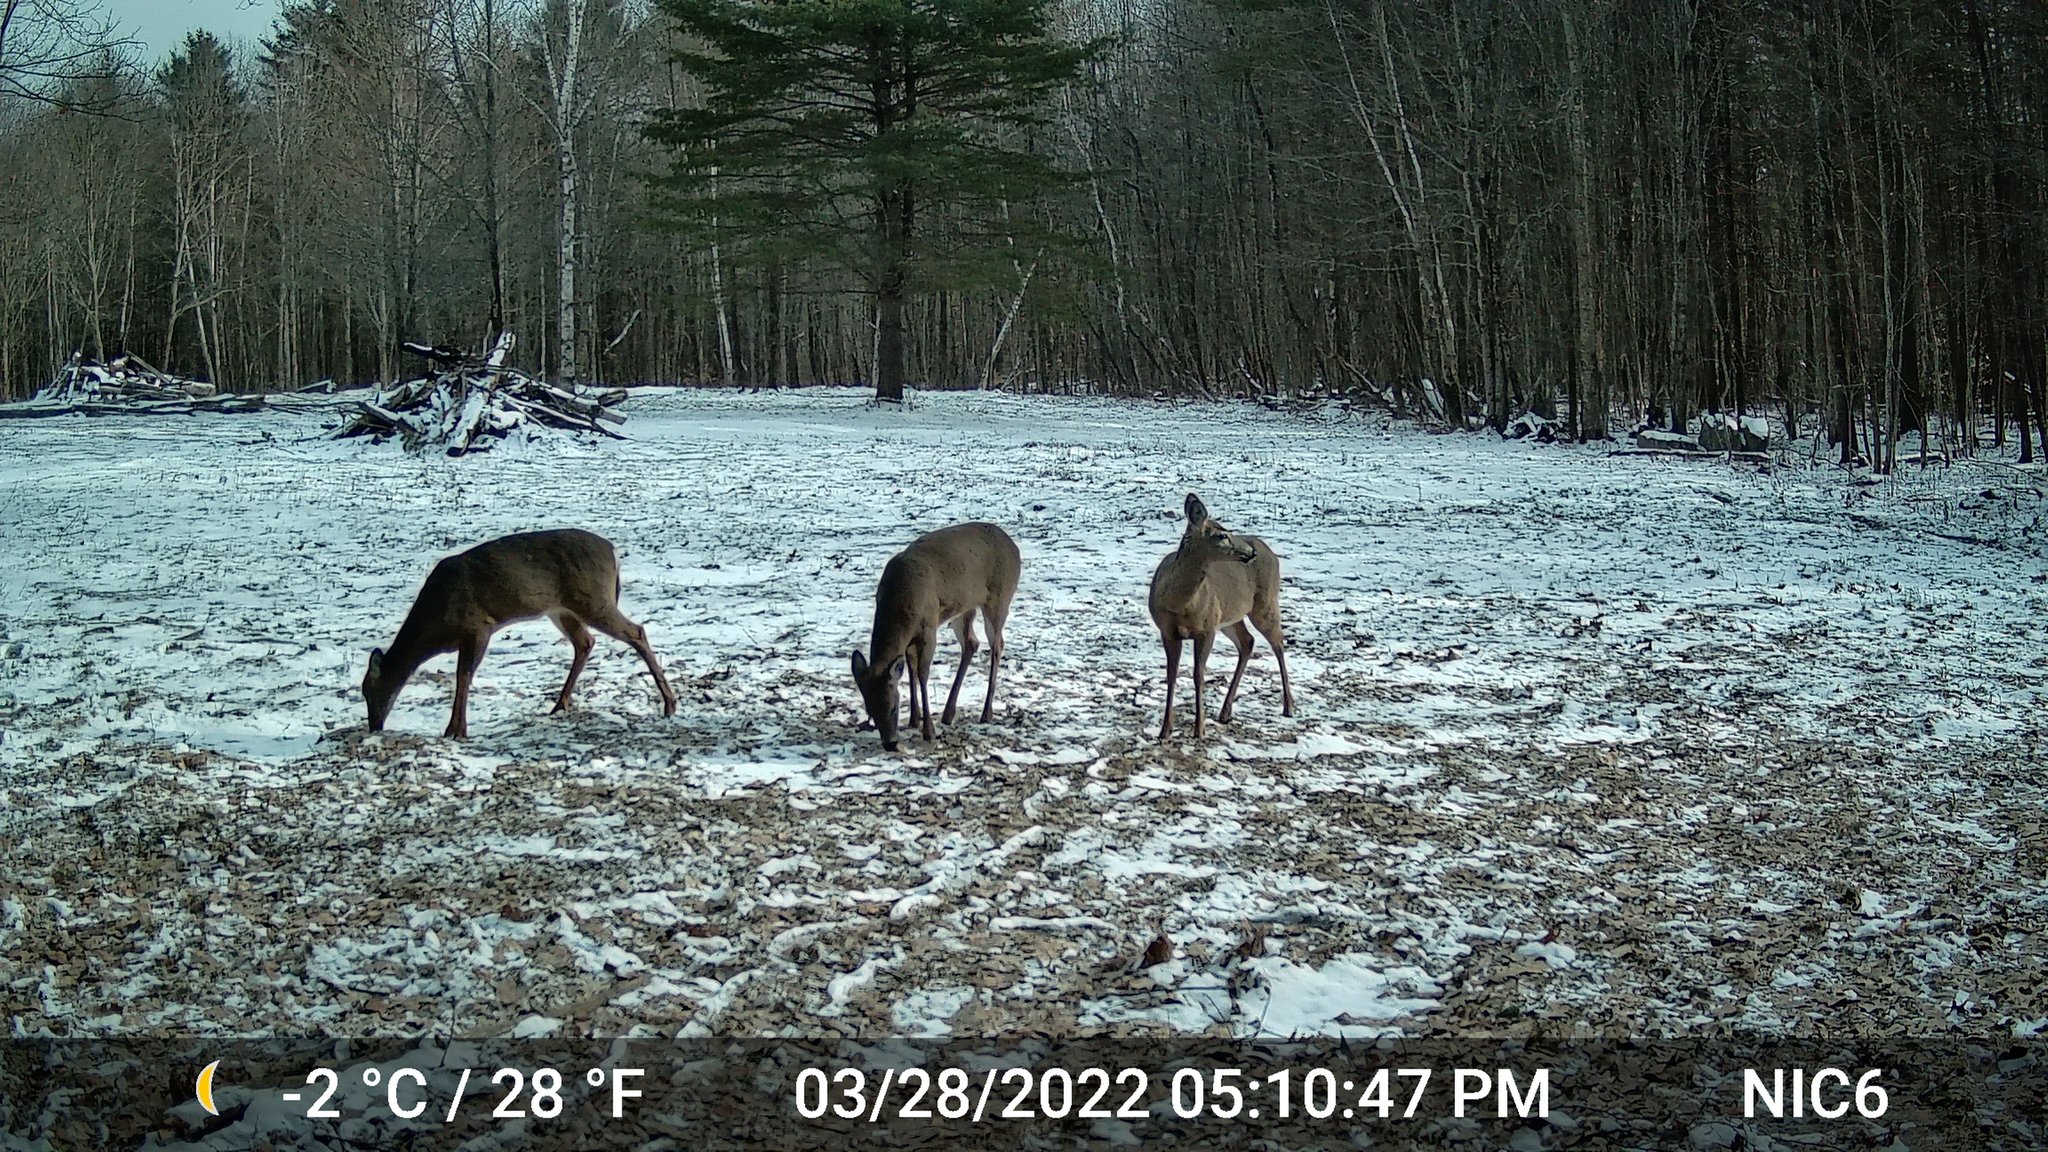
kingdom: Animalia
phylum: Chordata
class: Mammalia
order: Artiodactyla
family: Cervidae
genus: Odocoileus
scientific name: Odocoileus virginianus
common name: White-tailed deer
